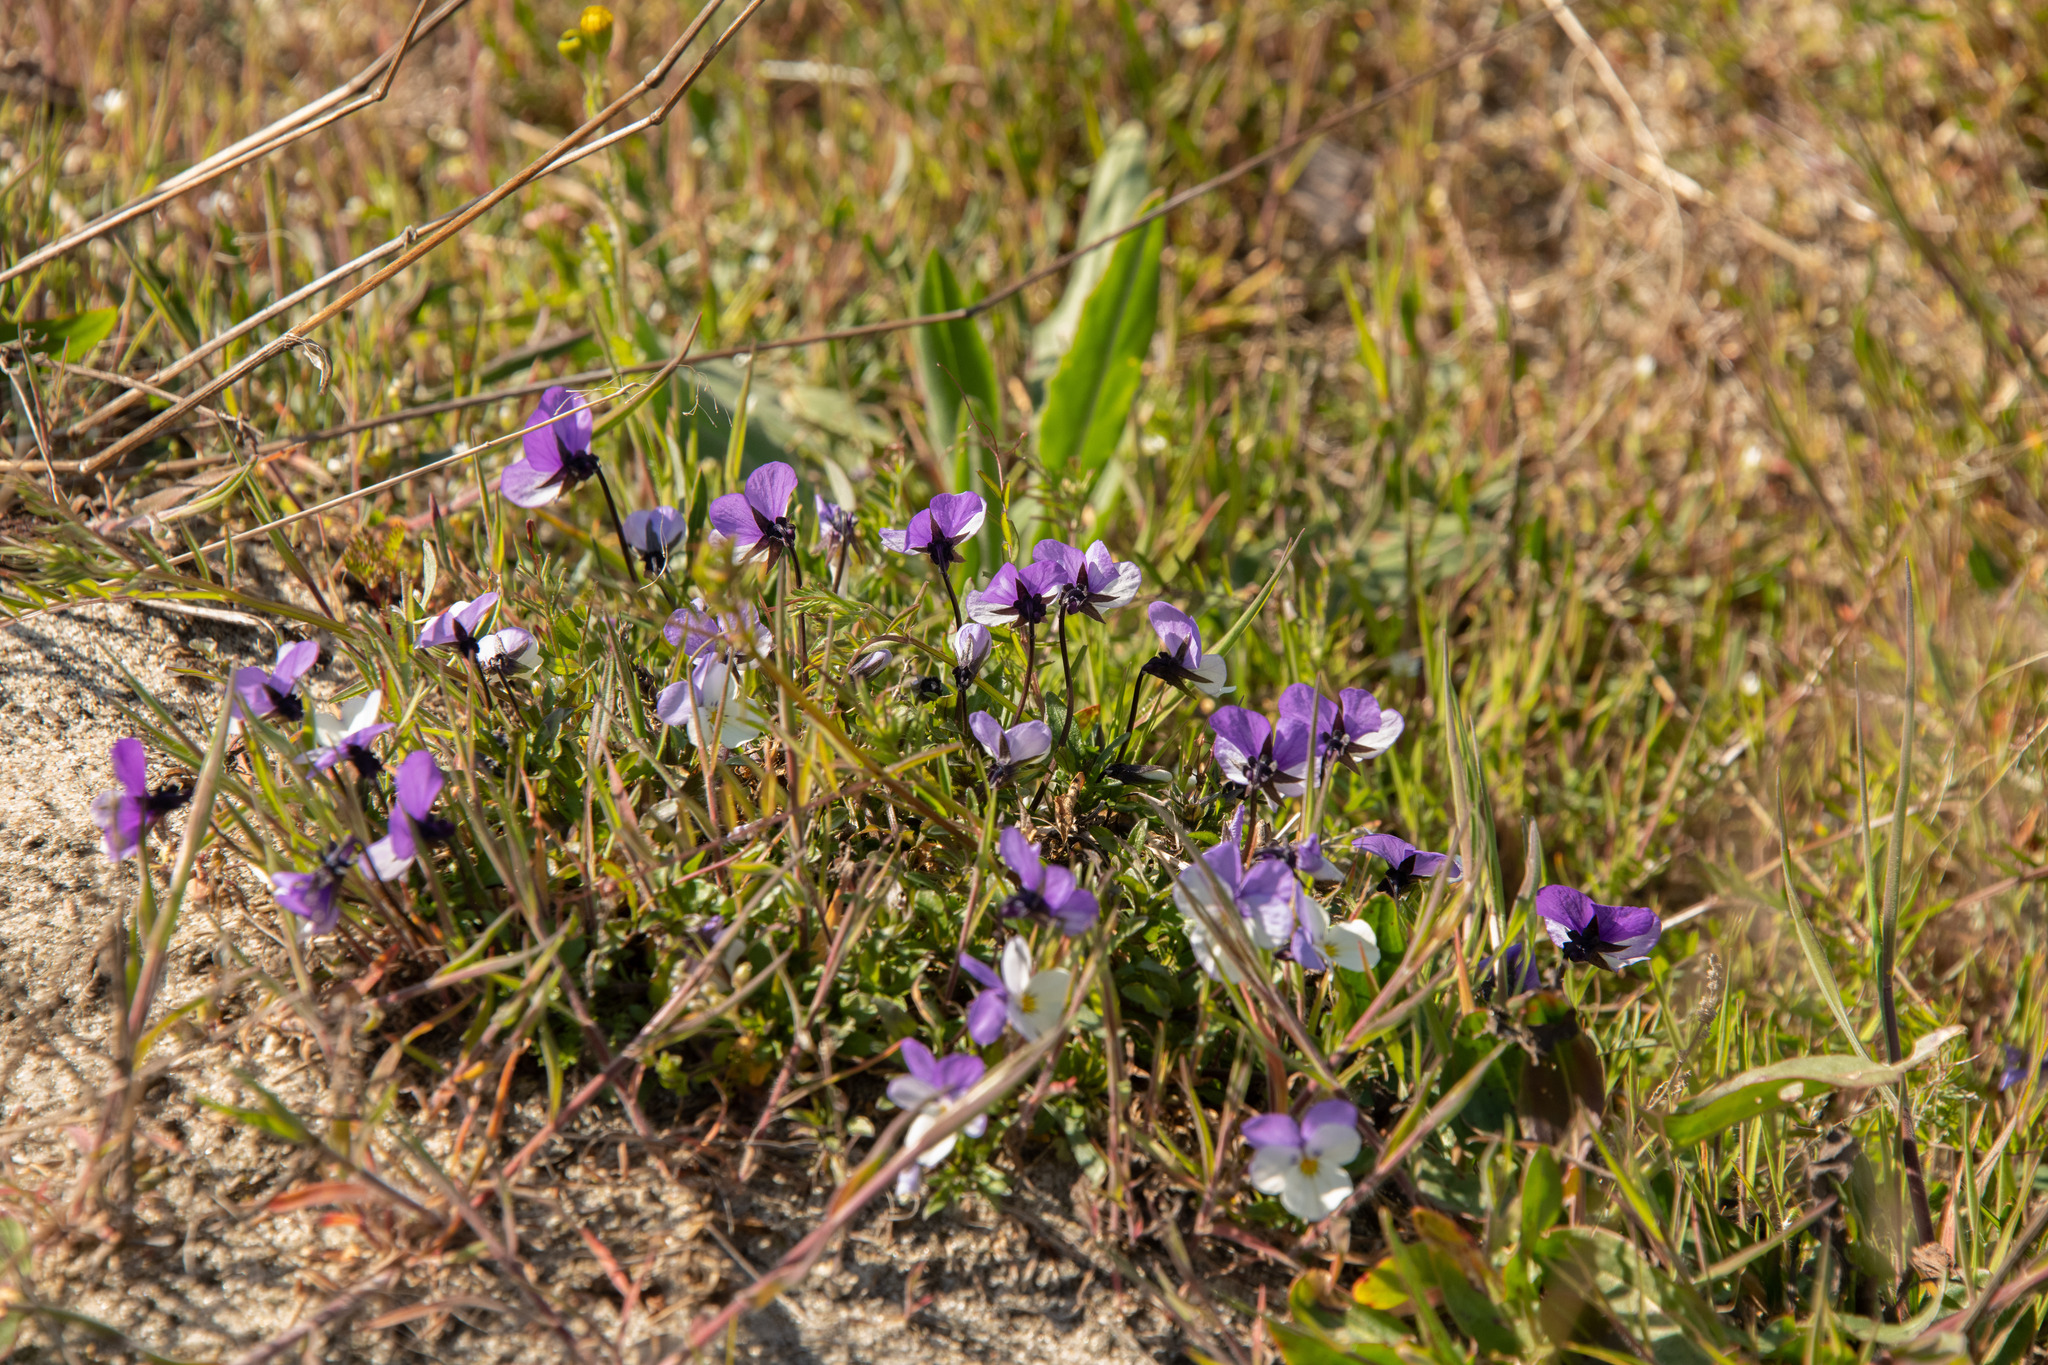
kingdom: Plantae
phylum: Tracheophyta
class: Magnoliopsida
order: Malpighiales
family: Violaceae
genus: Viola
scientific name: Viola tricolor
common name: Pansy
